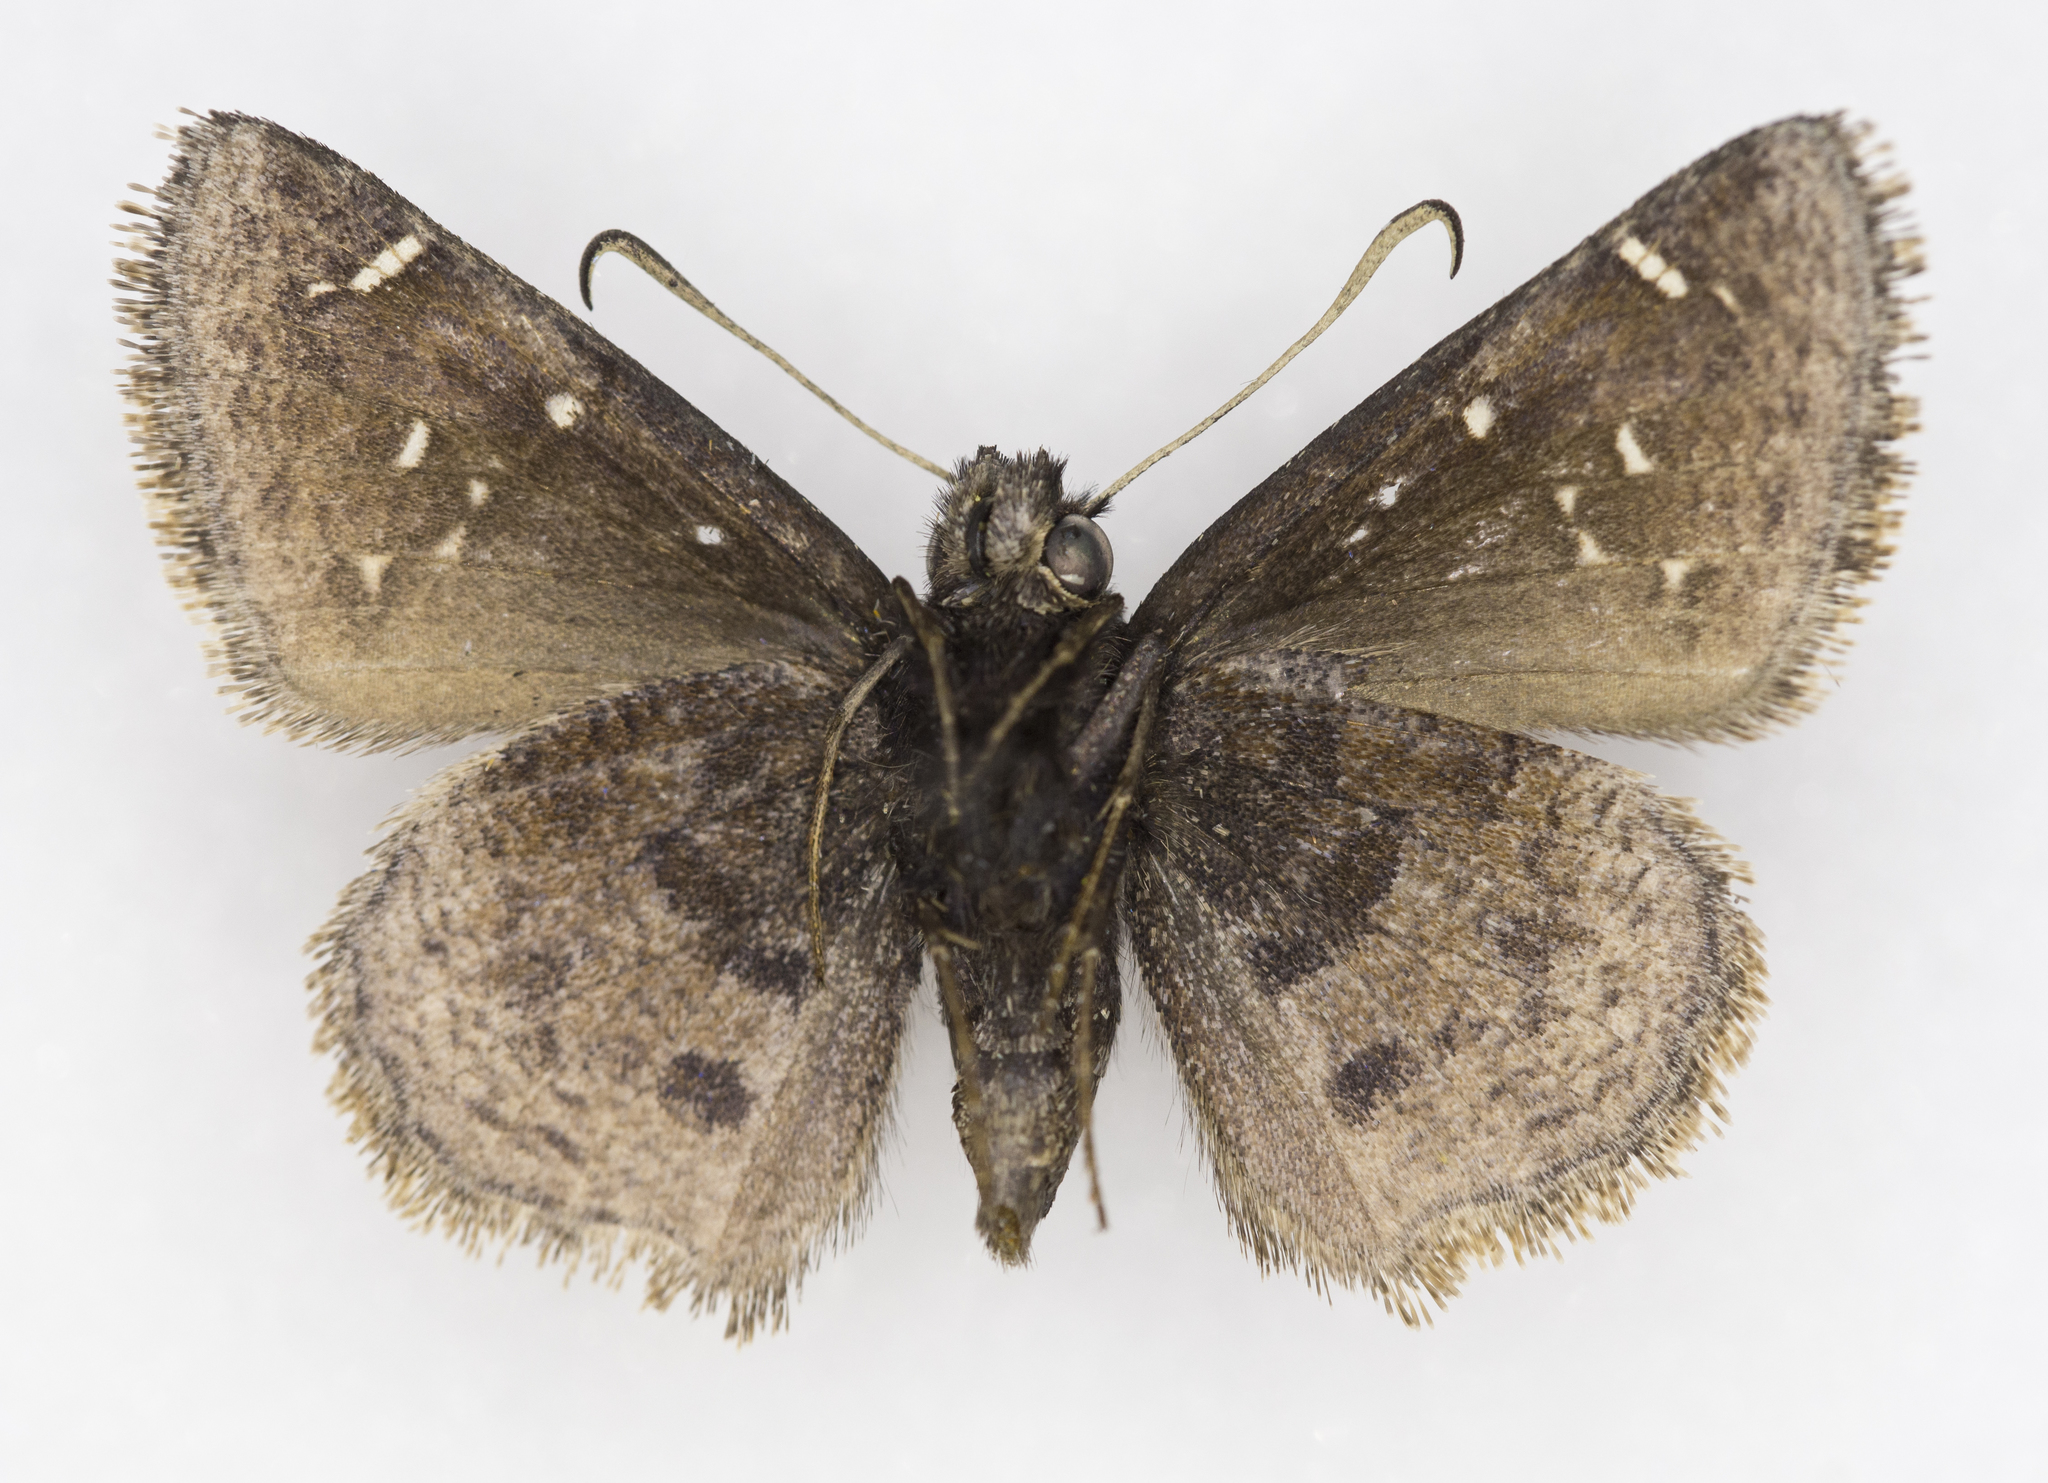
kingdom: Animalia
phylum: Arthropoda
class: Insecta
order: Lepidoptera
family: Hesperiidae
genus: Thorybes
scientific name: Thorybes mexicana
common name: Mexican cloudywing
